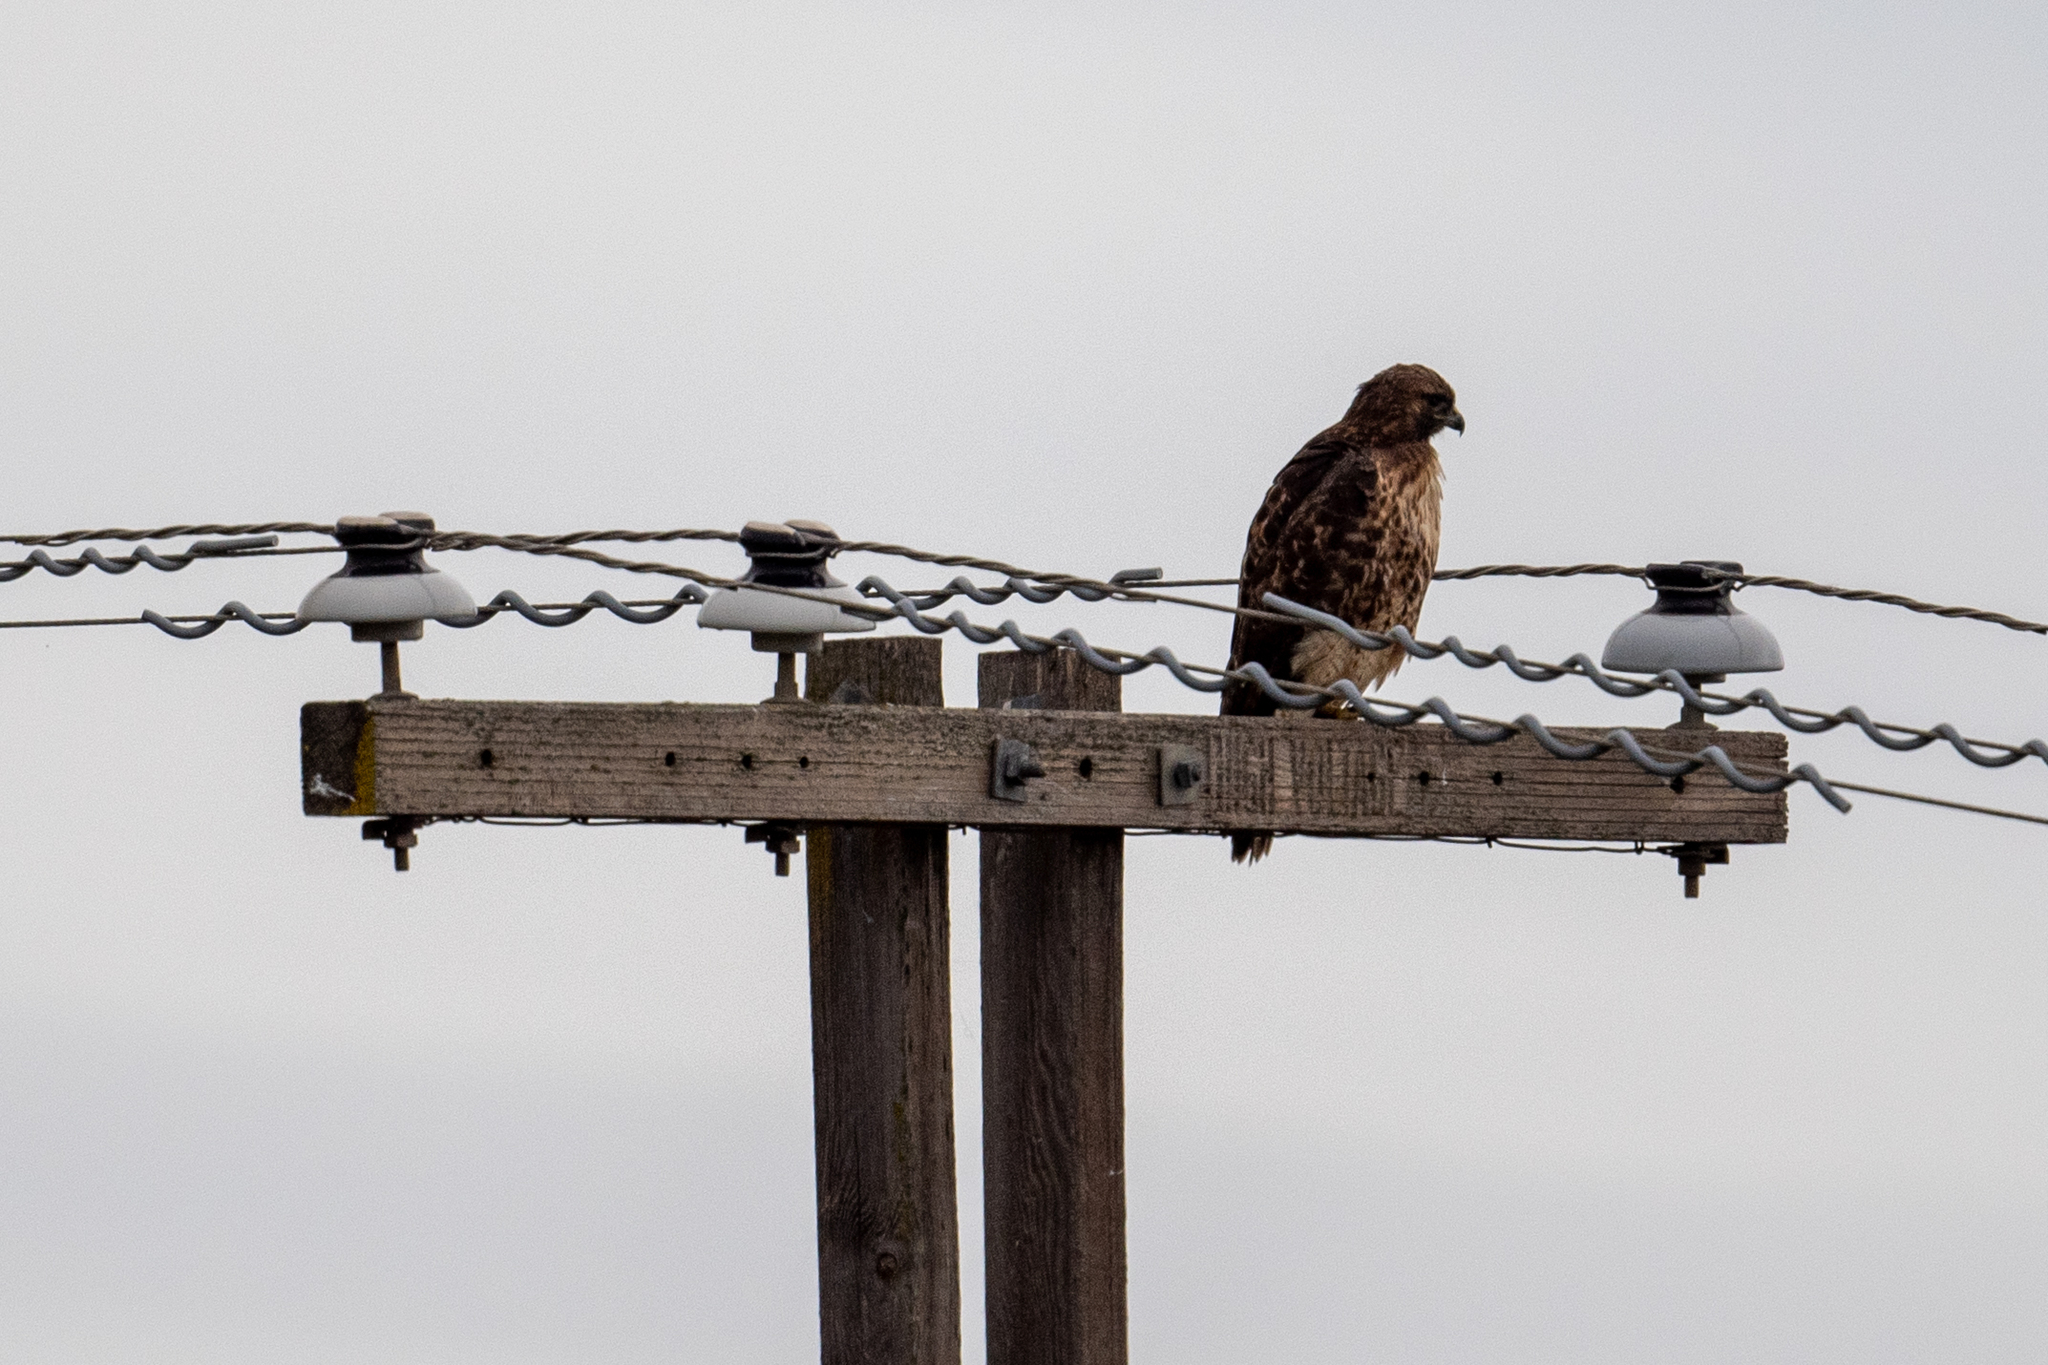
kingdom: Animalia
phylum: Chordata
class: Aves
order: Accipitriformes
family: Accipitridae
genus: Buteo
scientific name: Buteo jamaicensis
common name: Red-tailed hawk
